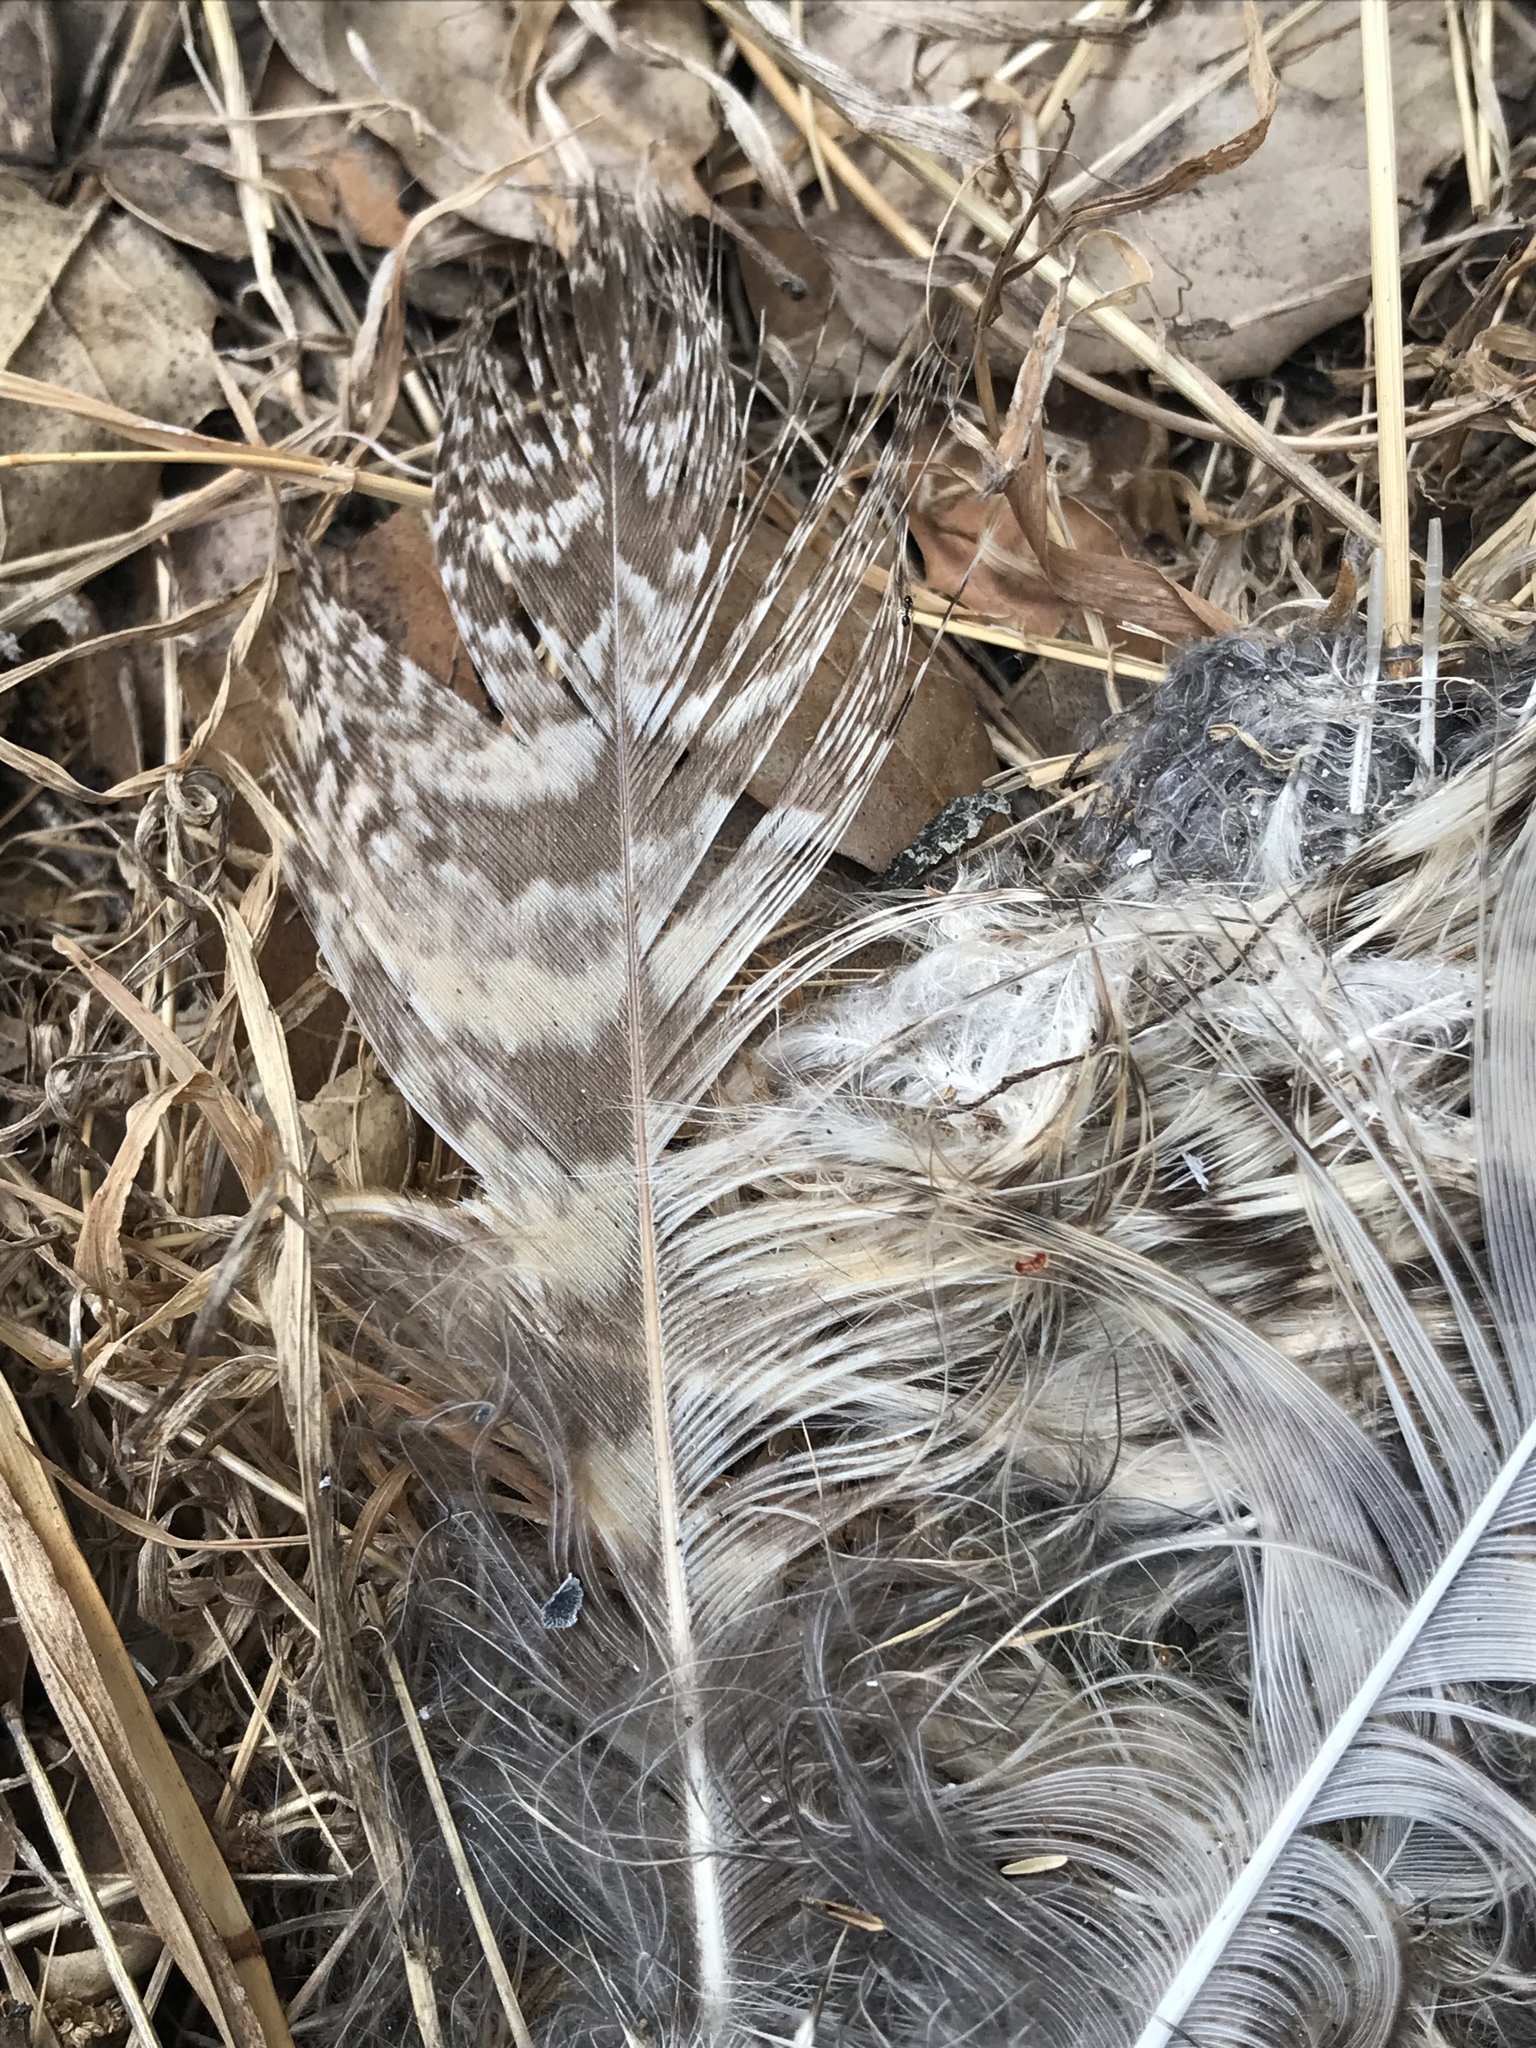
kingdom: Animalia
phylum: Chordata
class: Aves
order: Strigiformes
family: Strigidae
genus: Bubo
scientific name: Bubo virginianus
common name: Great horned owl
